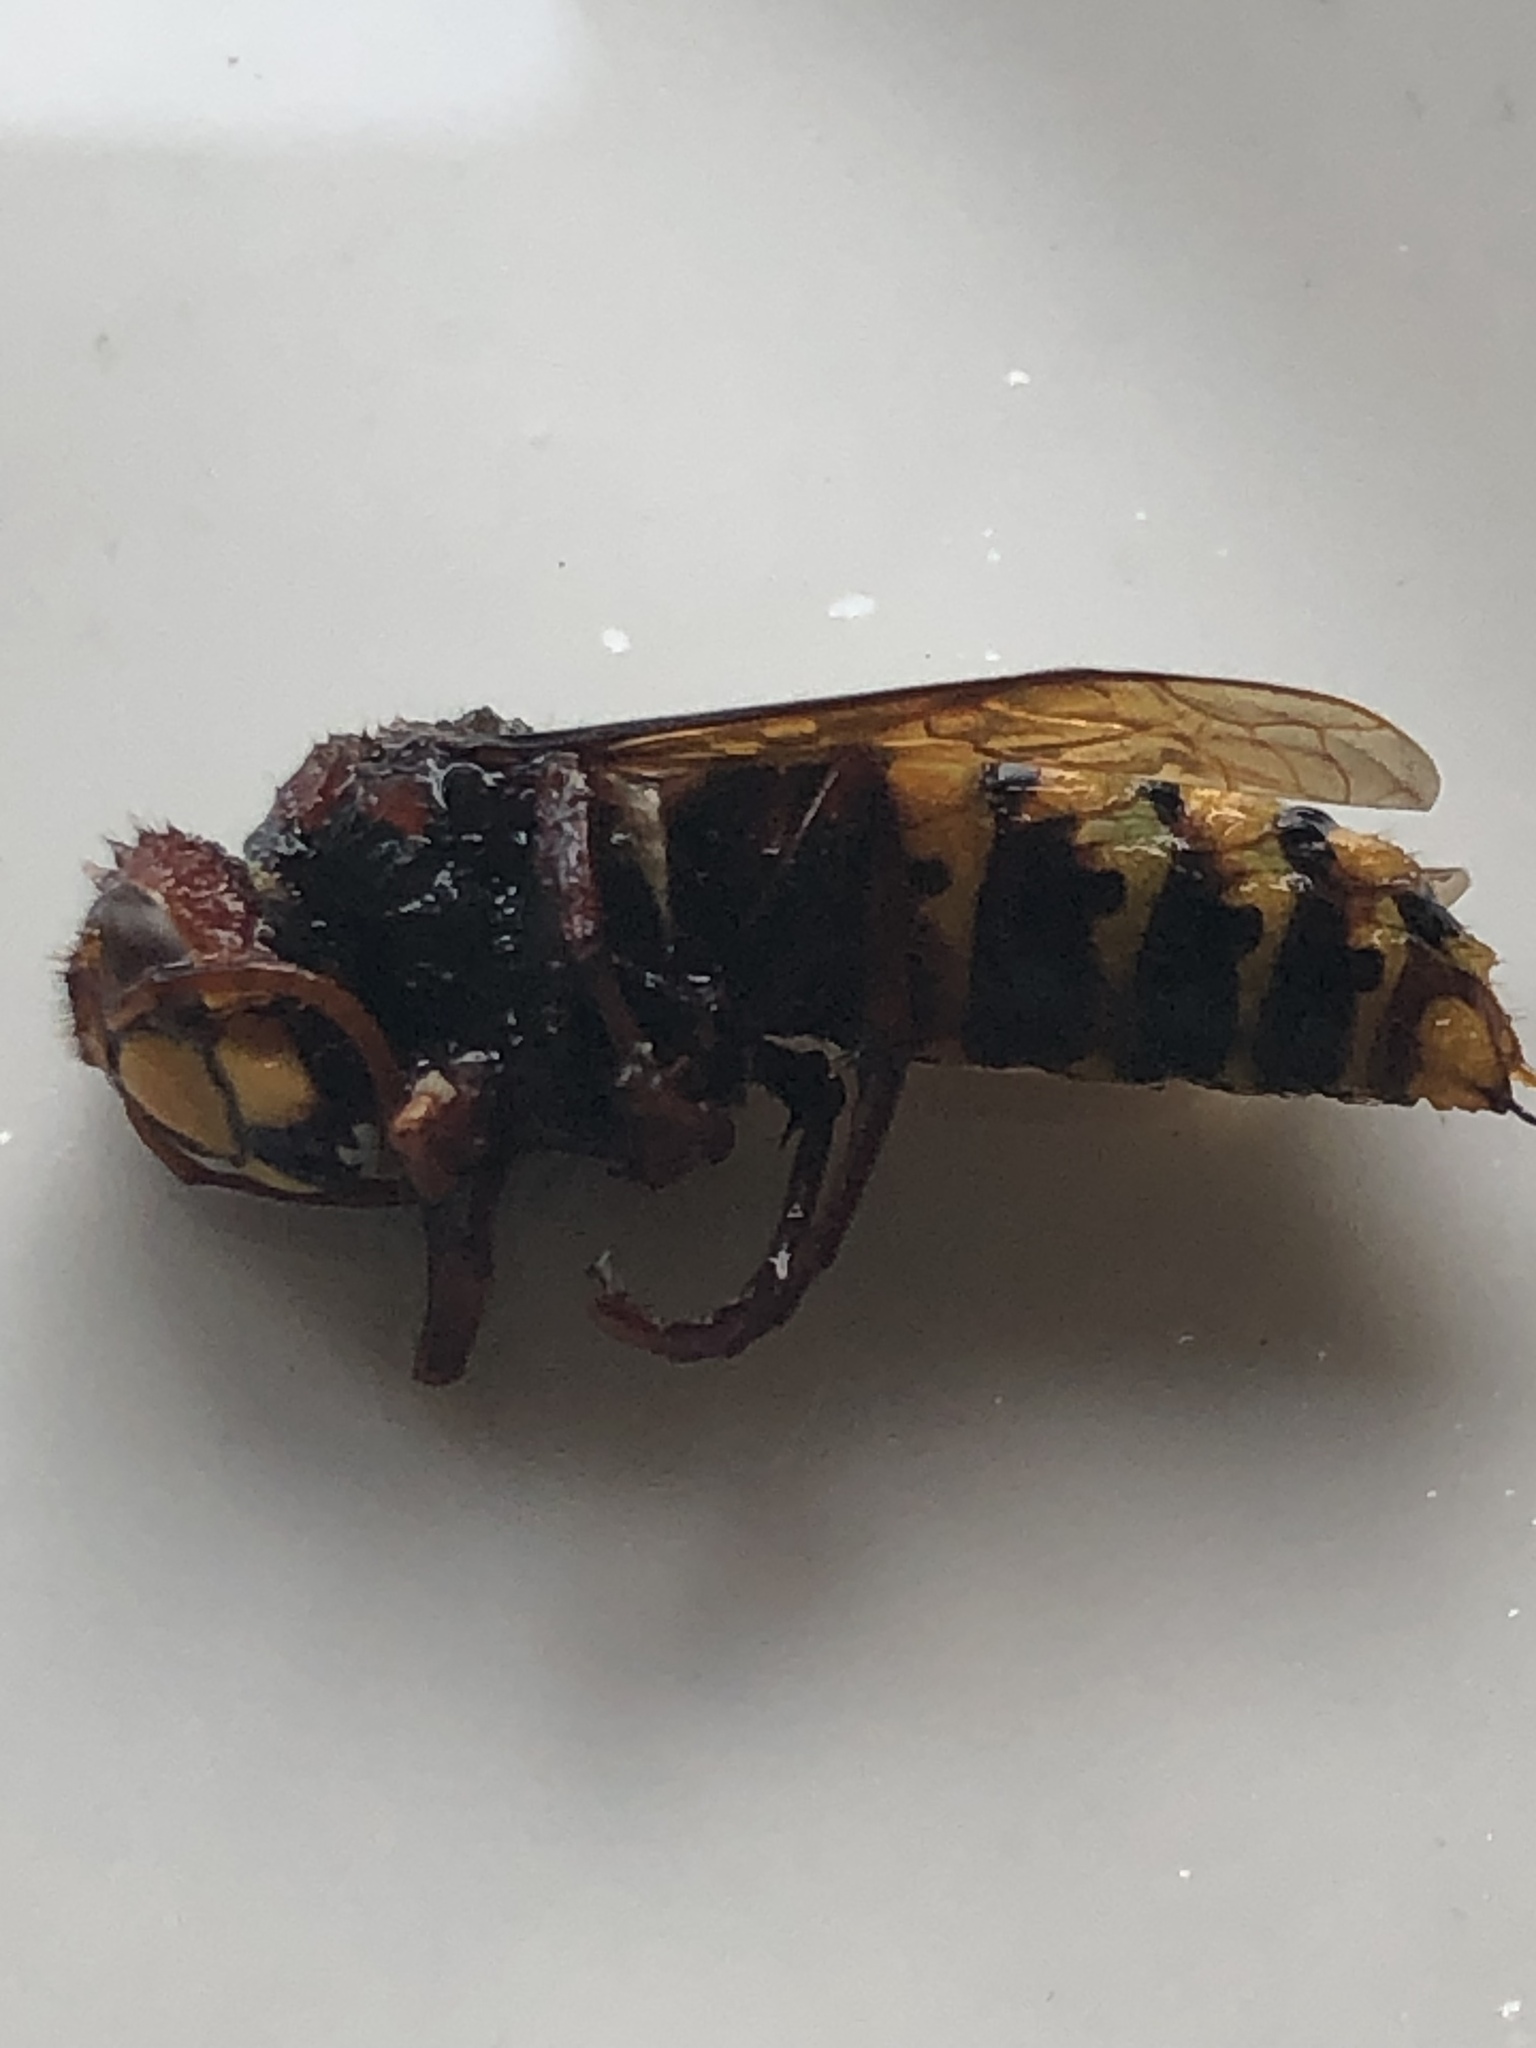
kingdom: Animalia
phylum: Arthropoda
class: Insecta
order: Hymenoptera
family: Vespidae
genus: Vespa
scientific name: Vespa crabro
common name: Hornet
